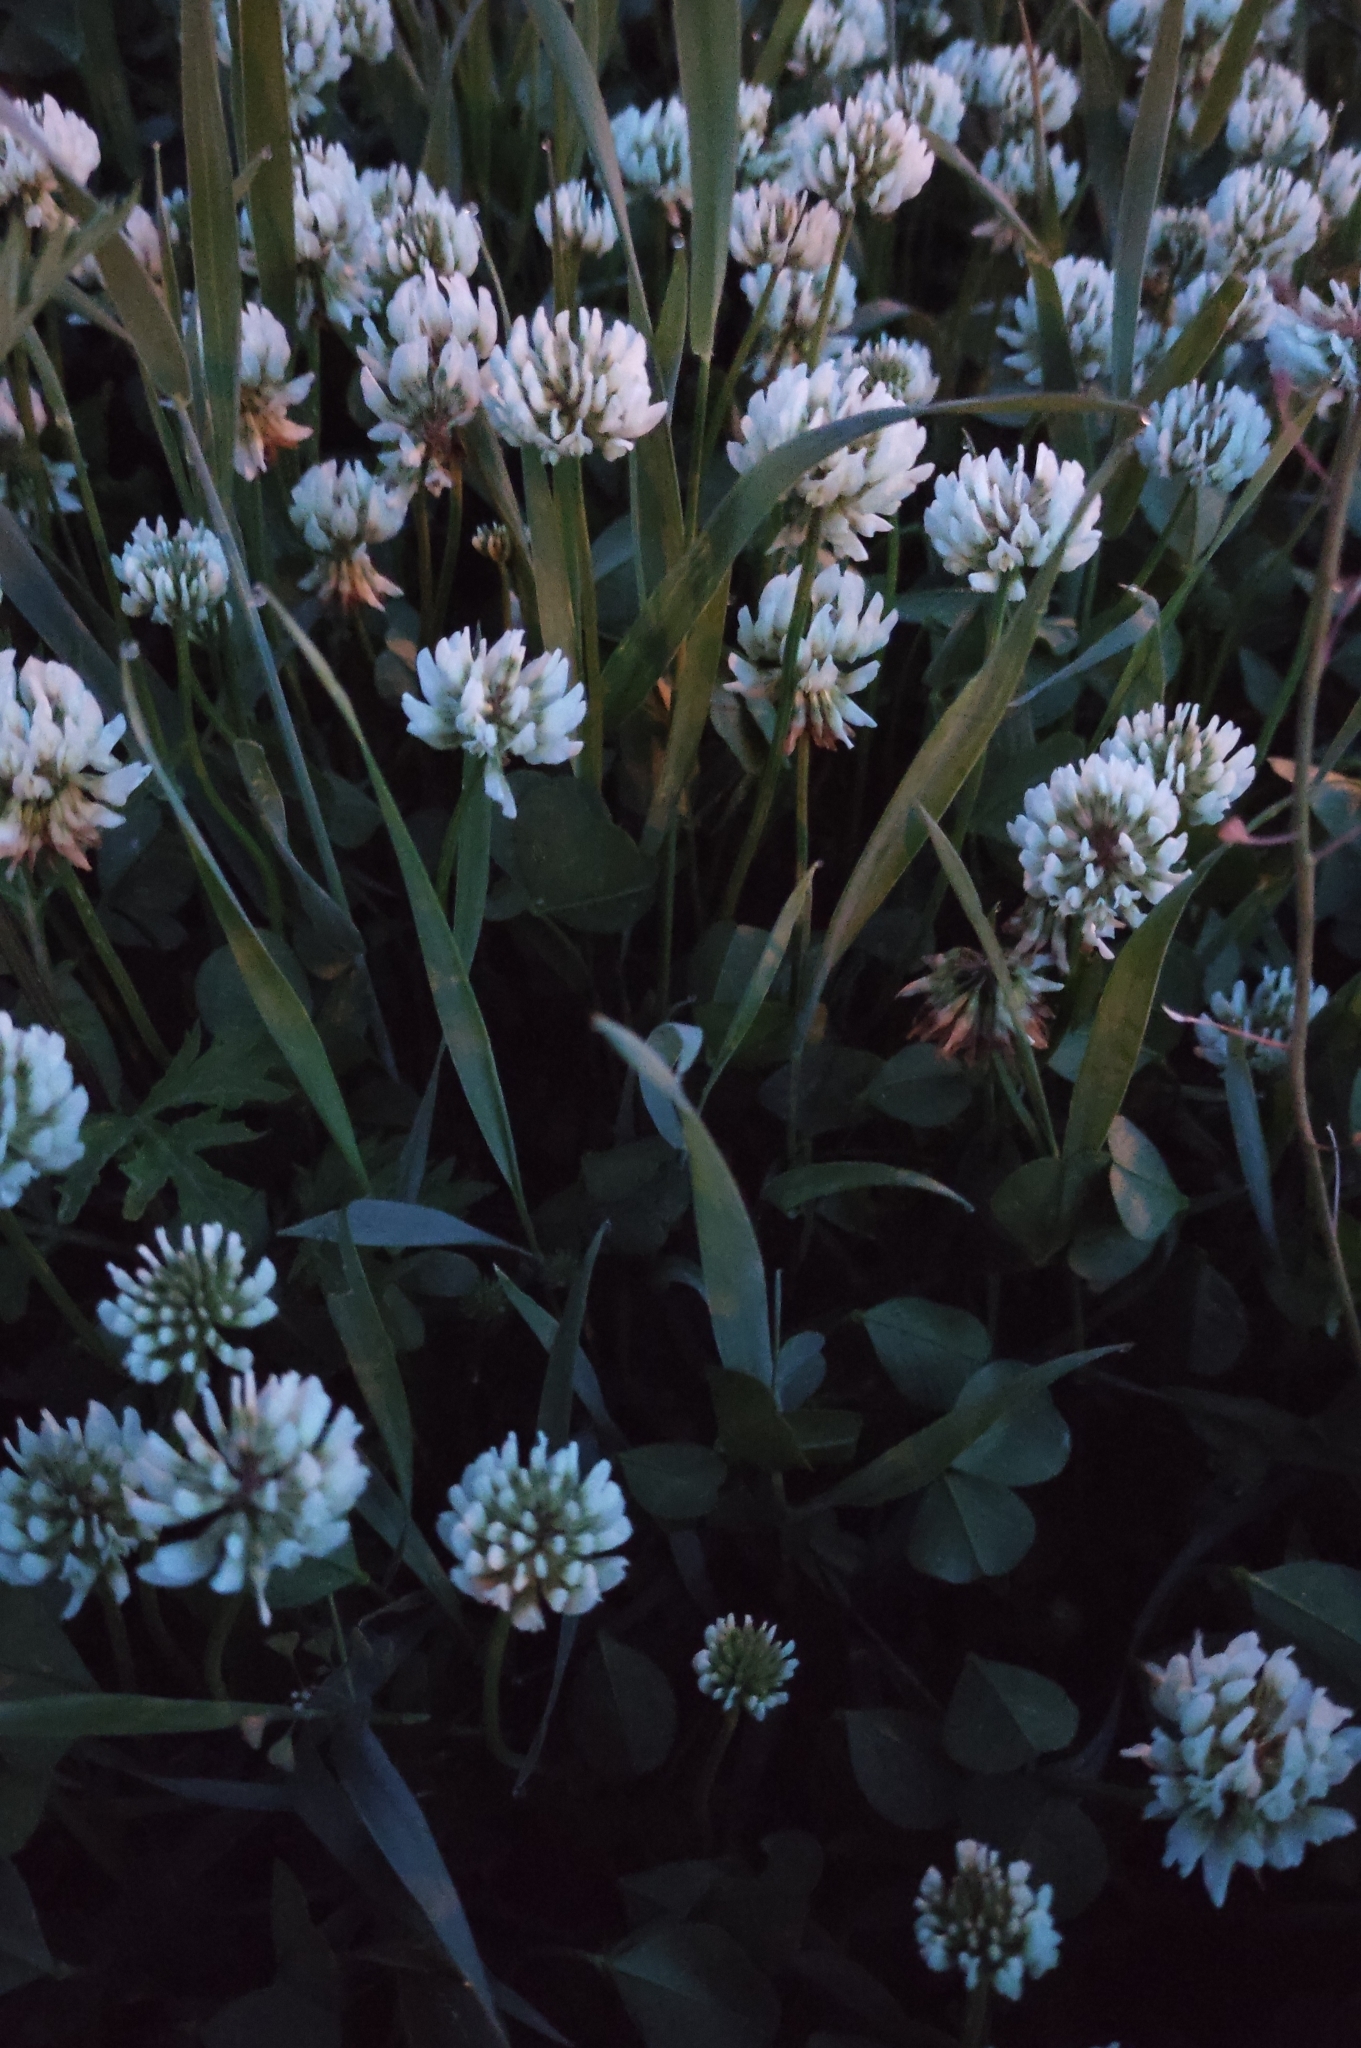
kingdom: Plantae
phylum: Tracheophyta
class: Magnoliopsida
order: Fabales
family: Fabaceae
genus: Trifolium
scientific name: Trifolium repens
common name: White clover
